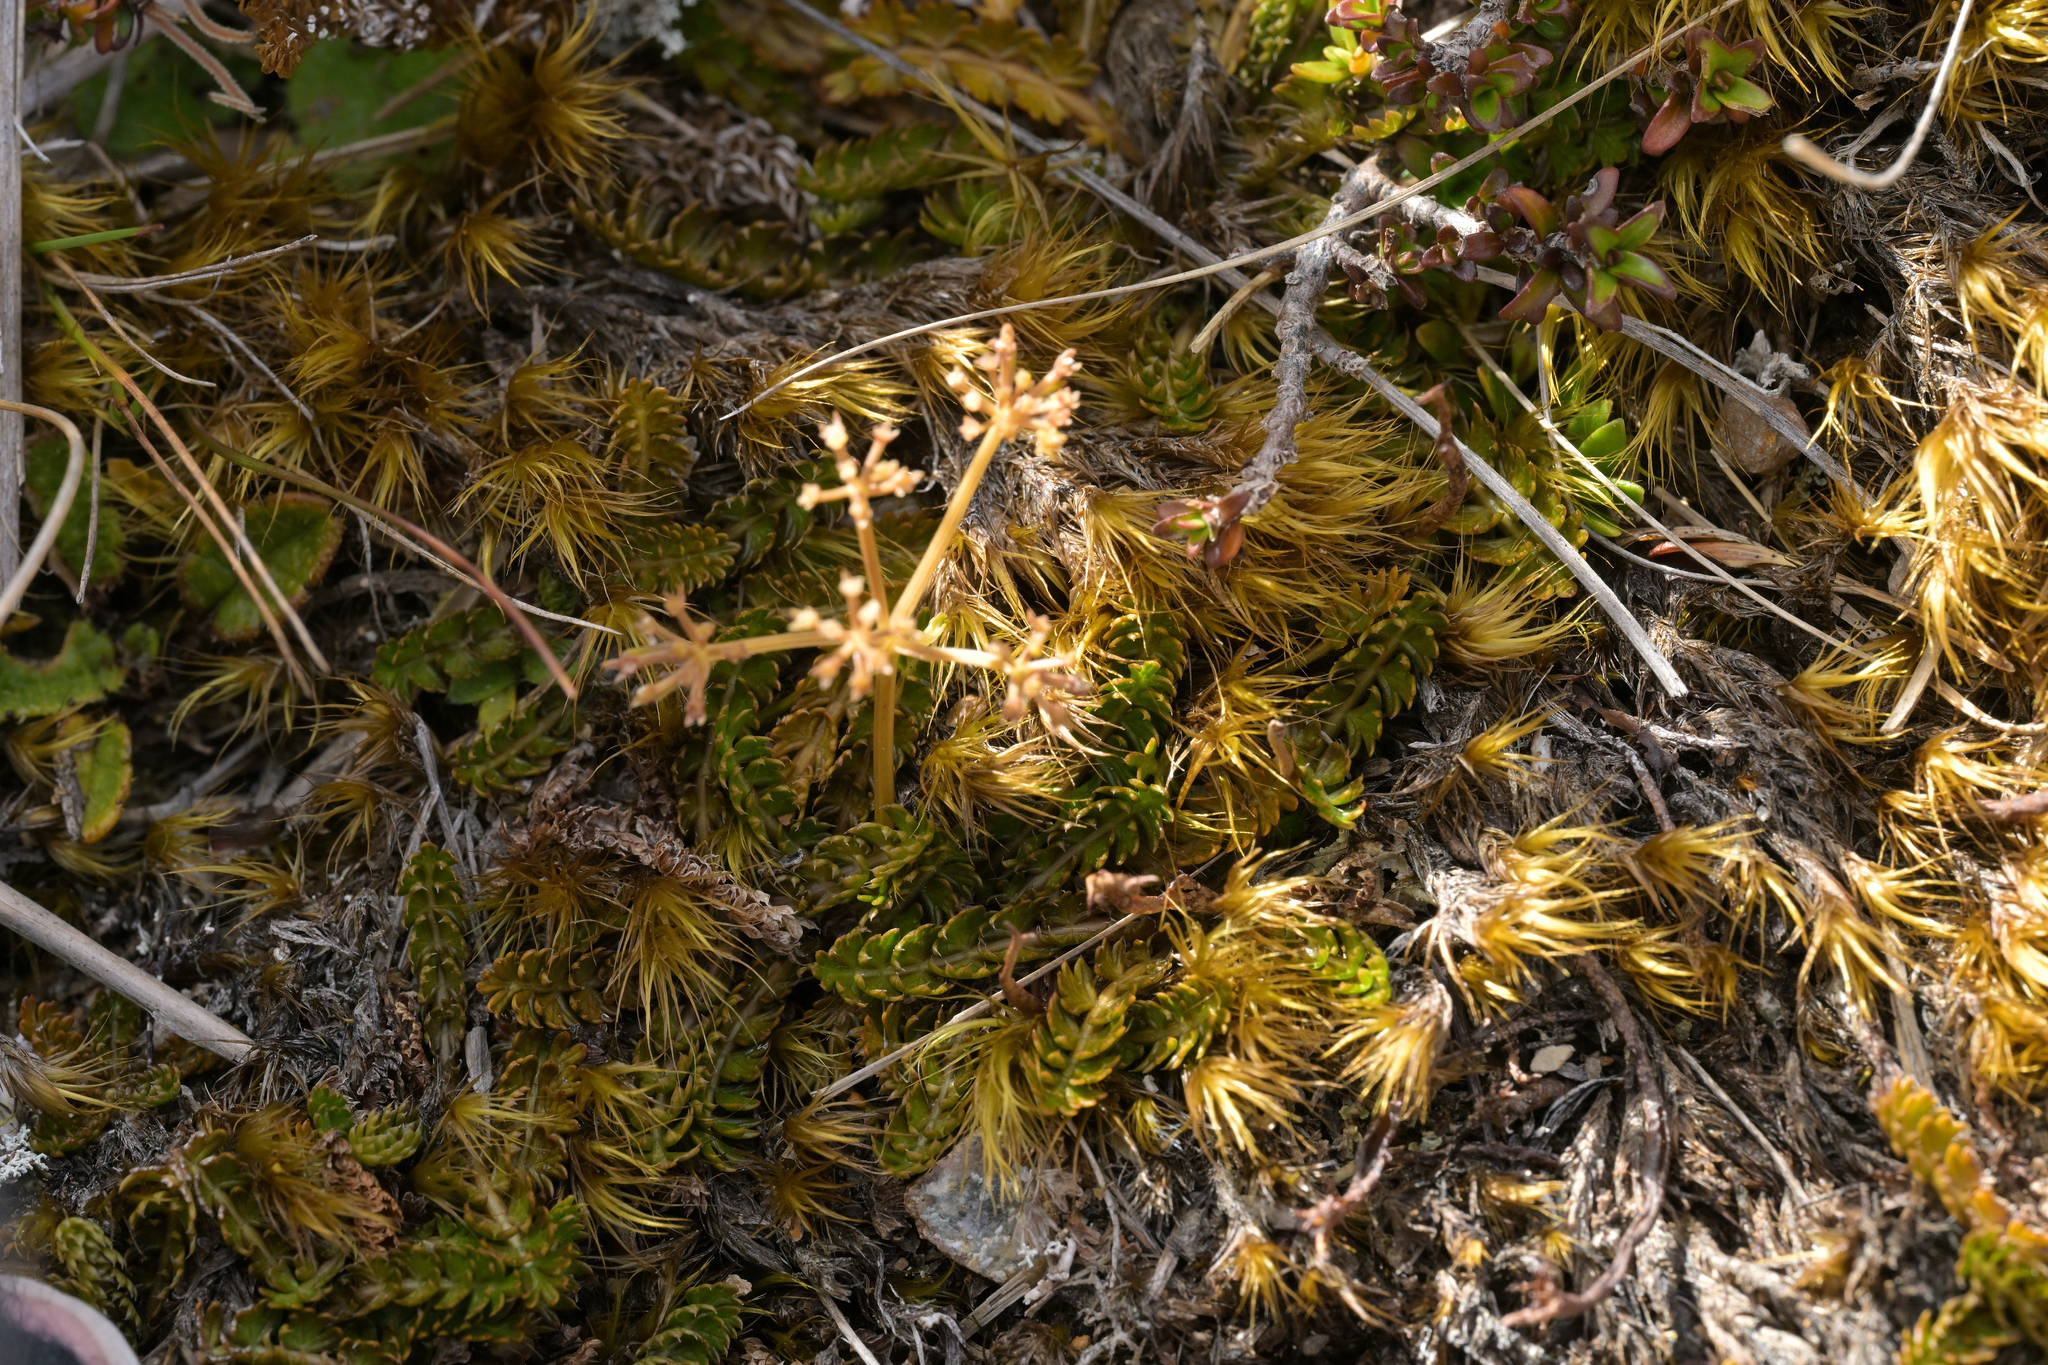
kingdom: Plantae
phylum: Tracheophyta
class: Magnoliopsida
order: Apiales
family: Apiaceae
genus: Anisotome
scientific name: Anisotome aromatica
